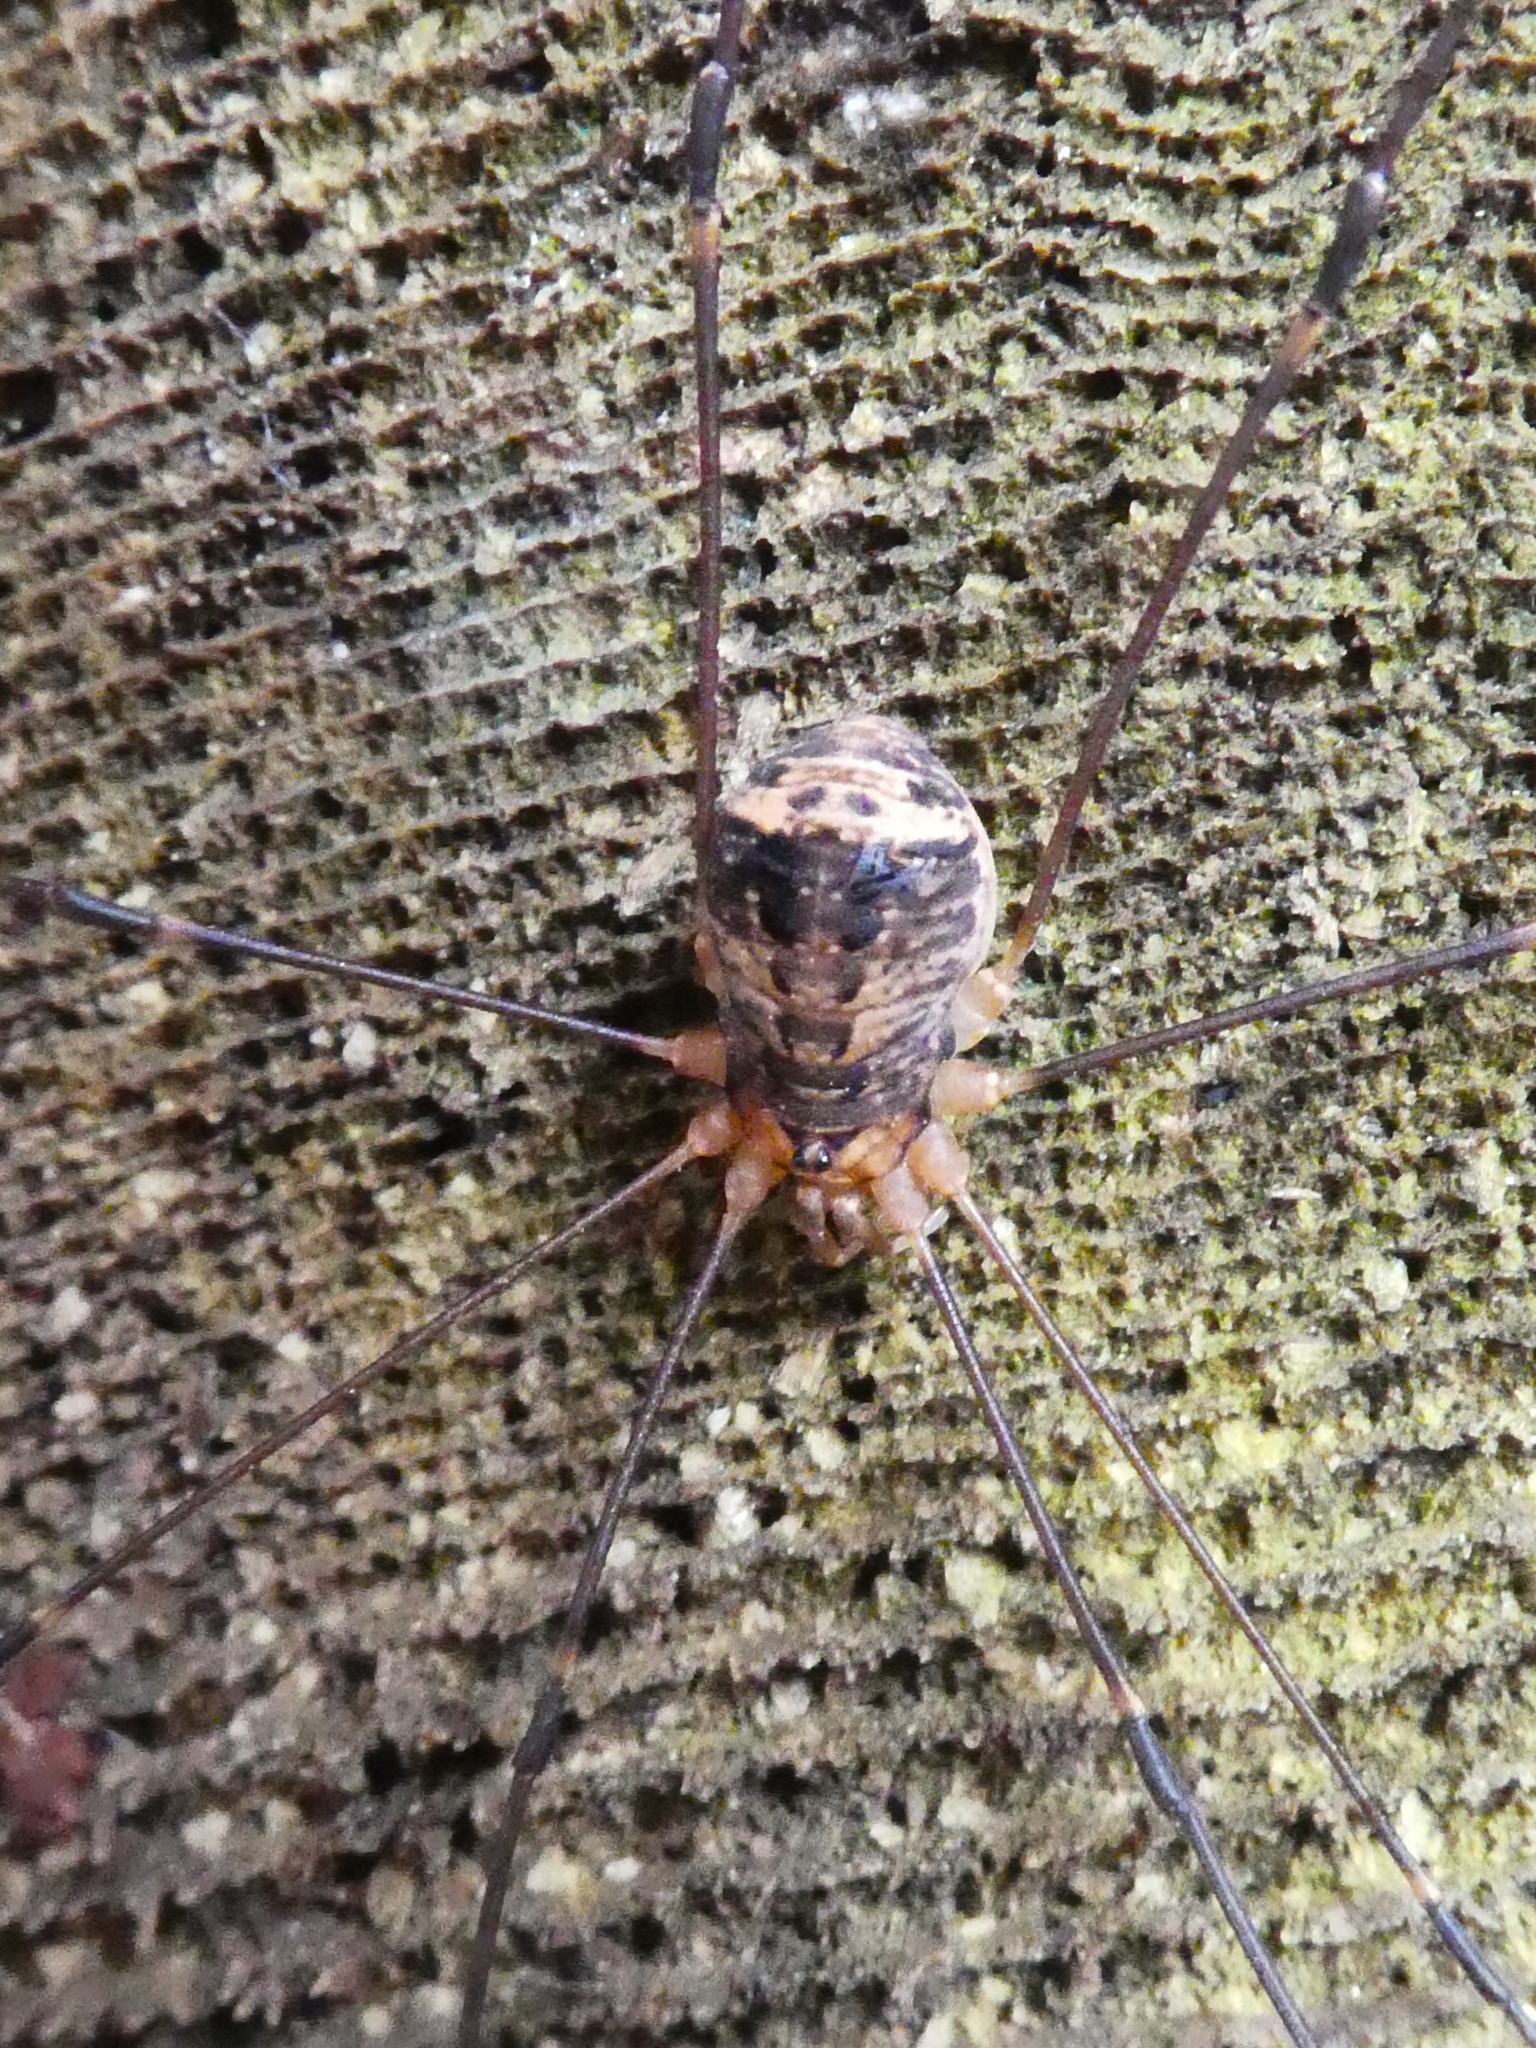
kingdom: Animalia
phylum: Arthropoda
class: Arachnida
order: Opiliones
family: Sclerosomatidae
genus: Nelima
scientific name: Nelima paessleri
